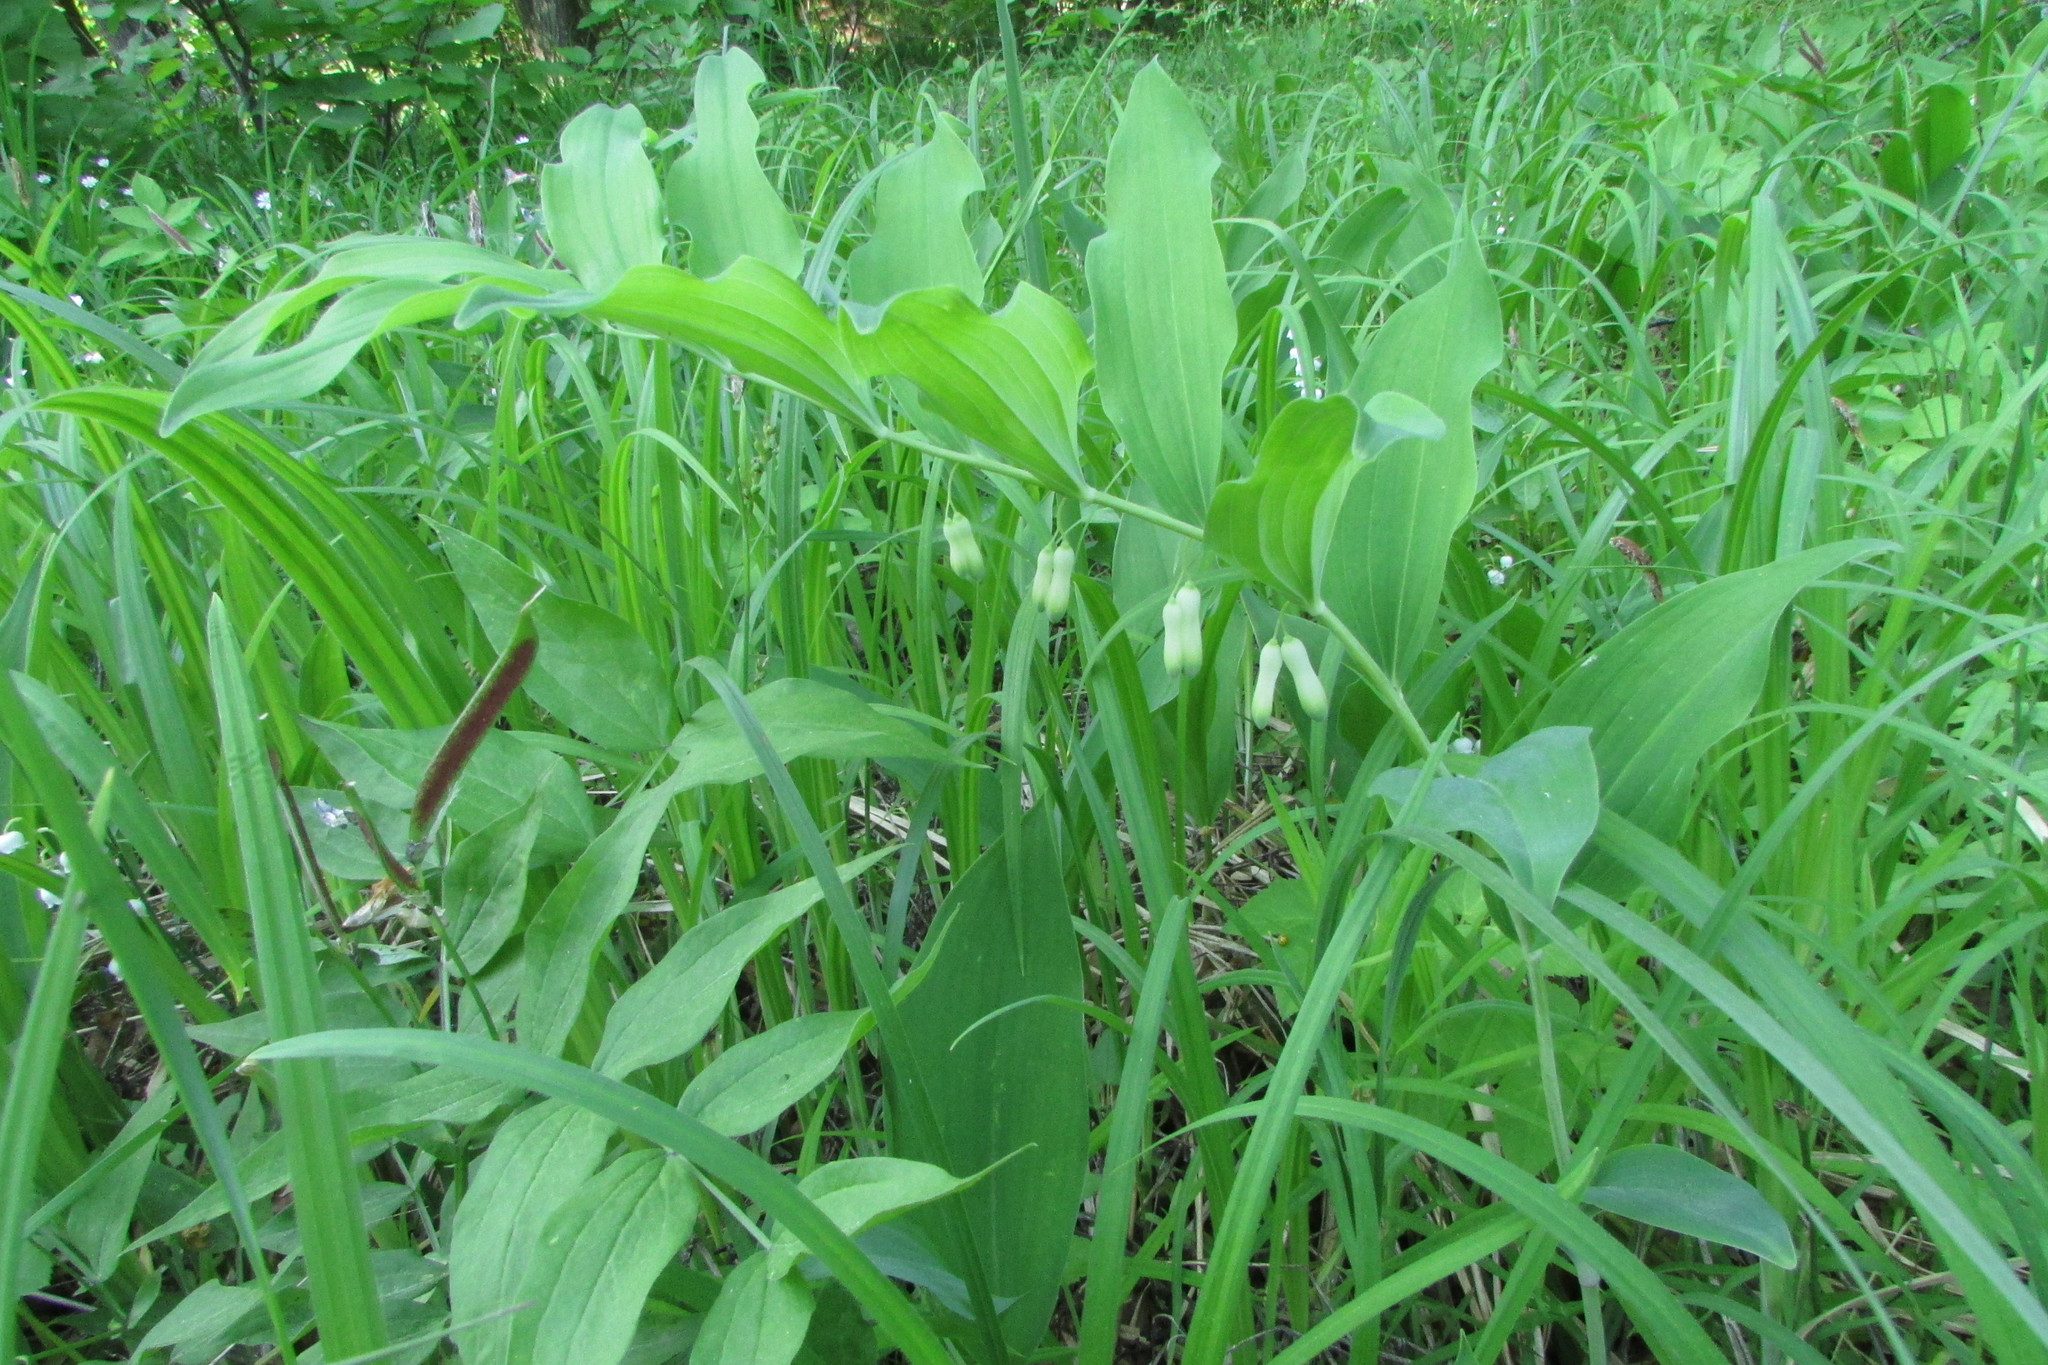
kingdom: Plantae
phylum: Tracheophyta
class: Liliopsida
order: Asparagales
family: Asparagaceae
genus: Polygonatum
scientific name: Polygonatum multiflorum
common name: Solomon's-seal
